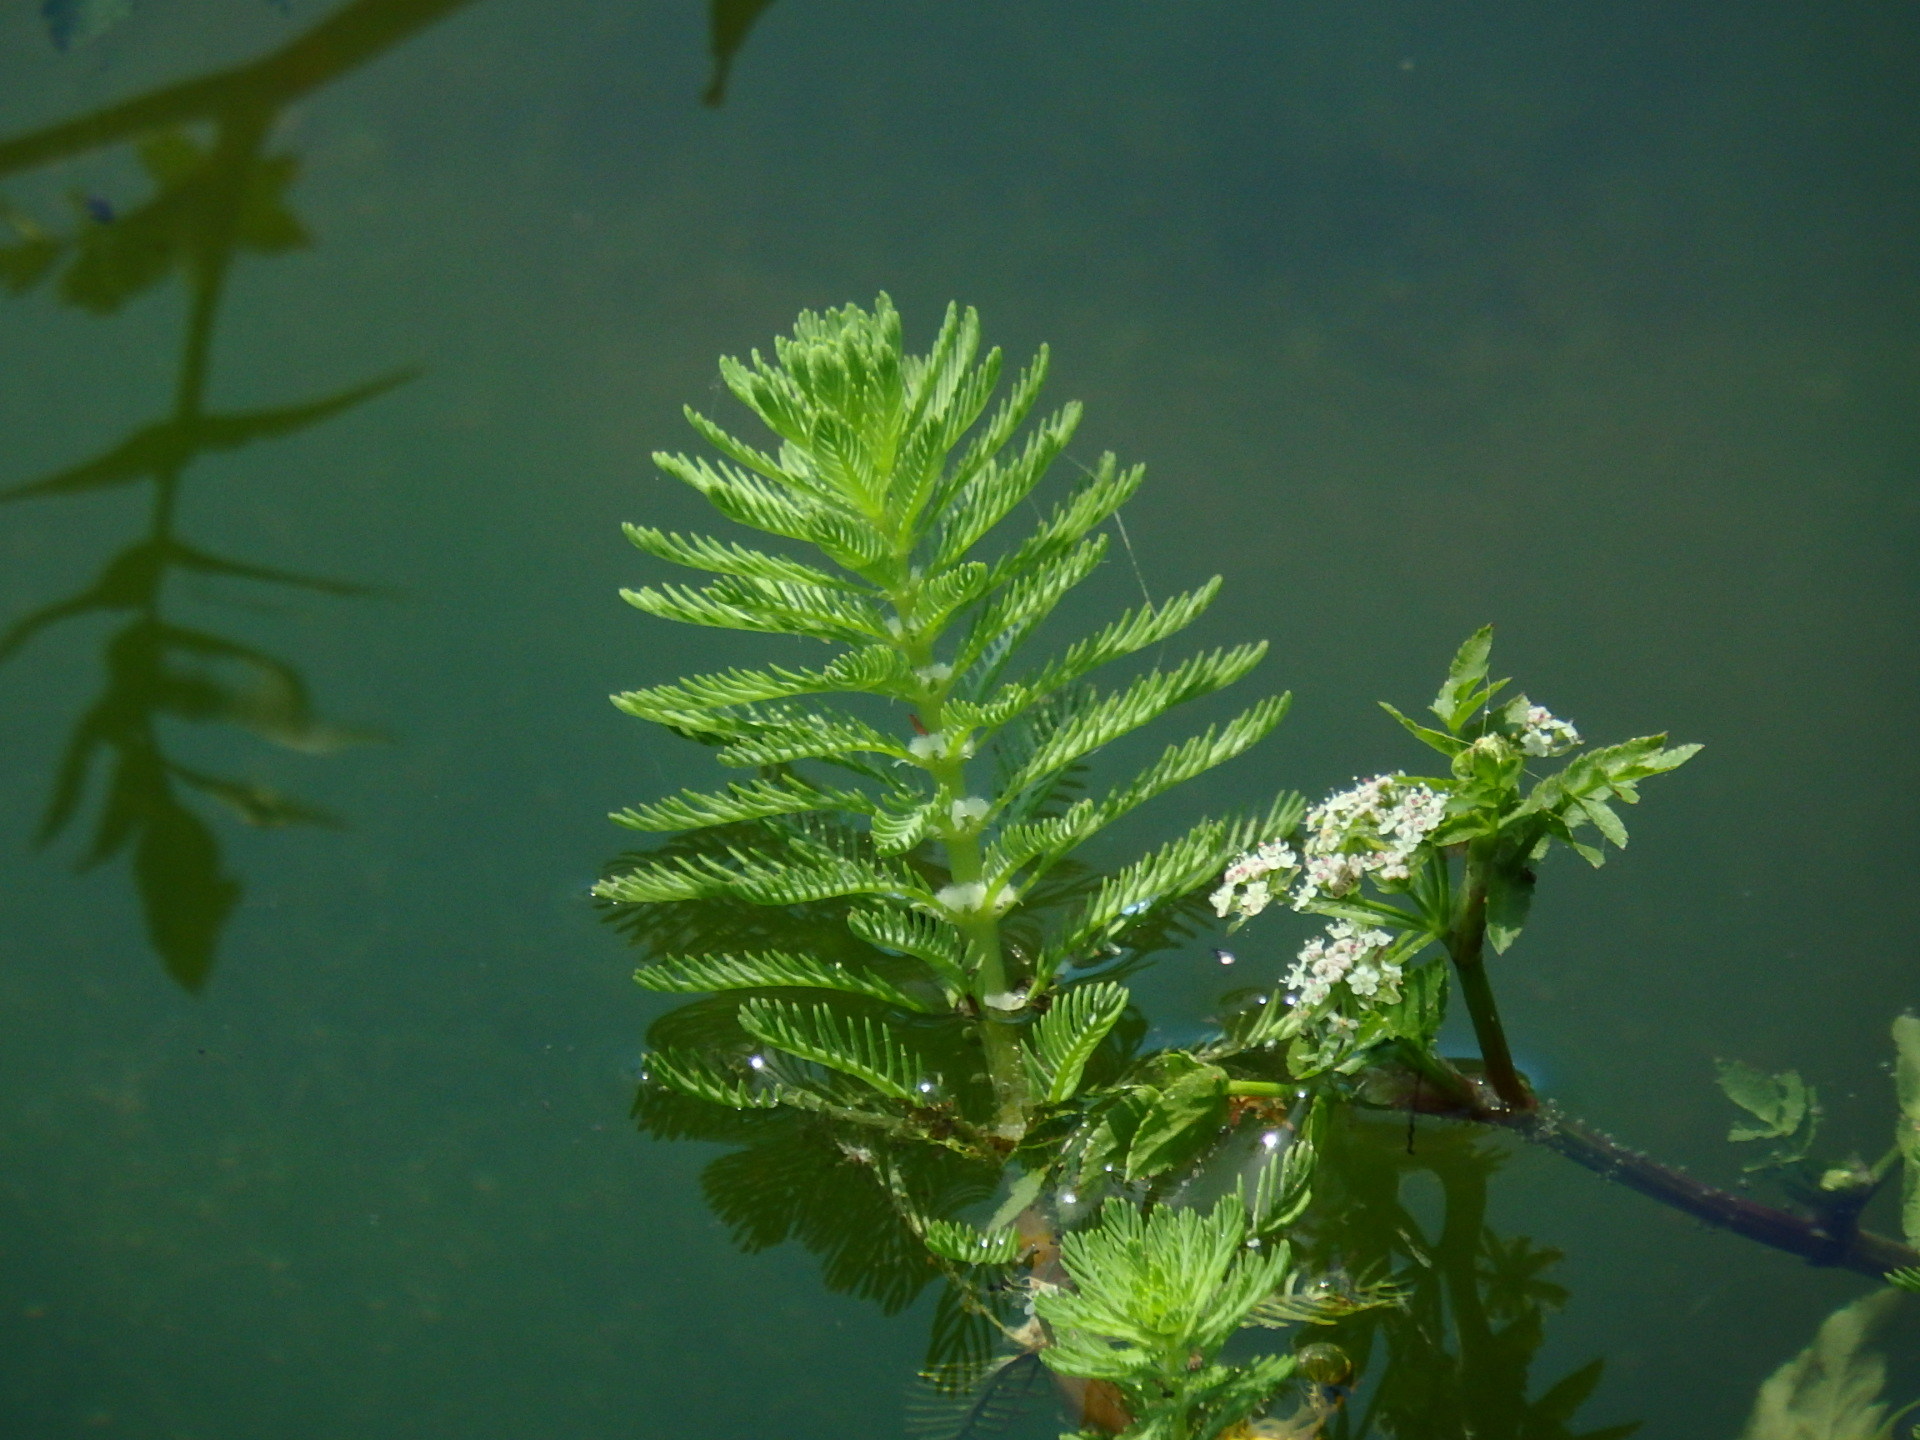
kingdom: Plantae
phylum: Tracheophyta
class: Magnoliopsida
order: Saxifragales
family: Haloragaceae
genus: Myriophyllum
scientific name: Myriophyllum aquaticum
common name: Parrot's feather
